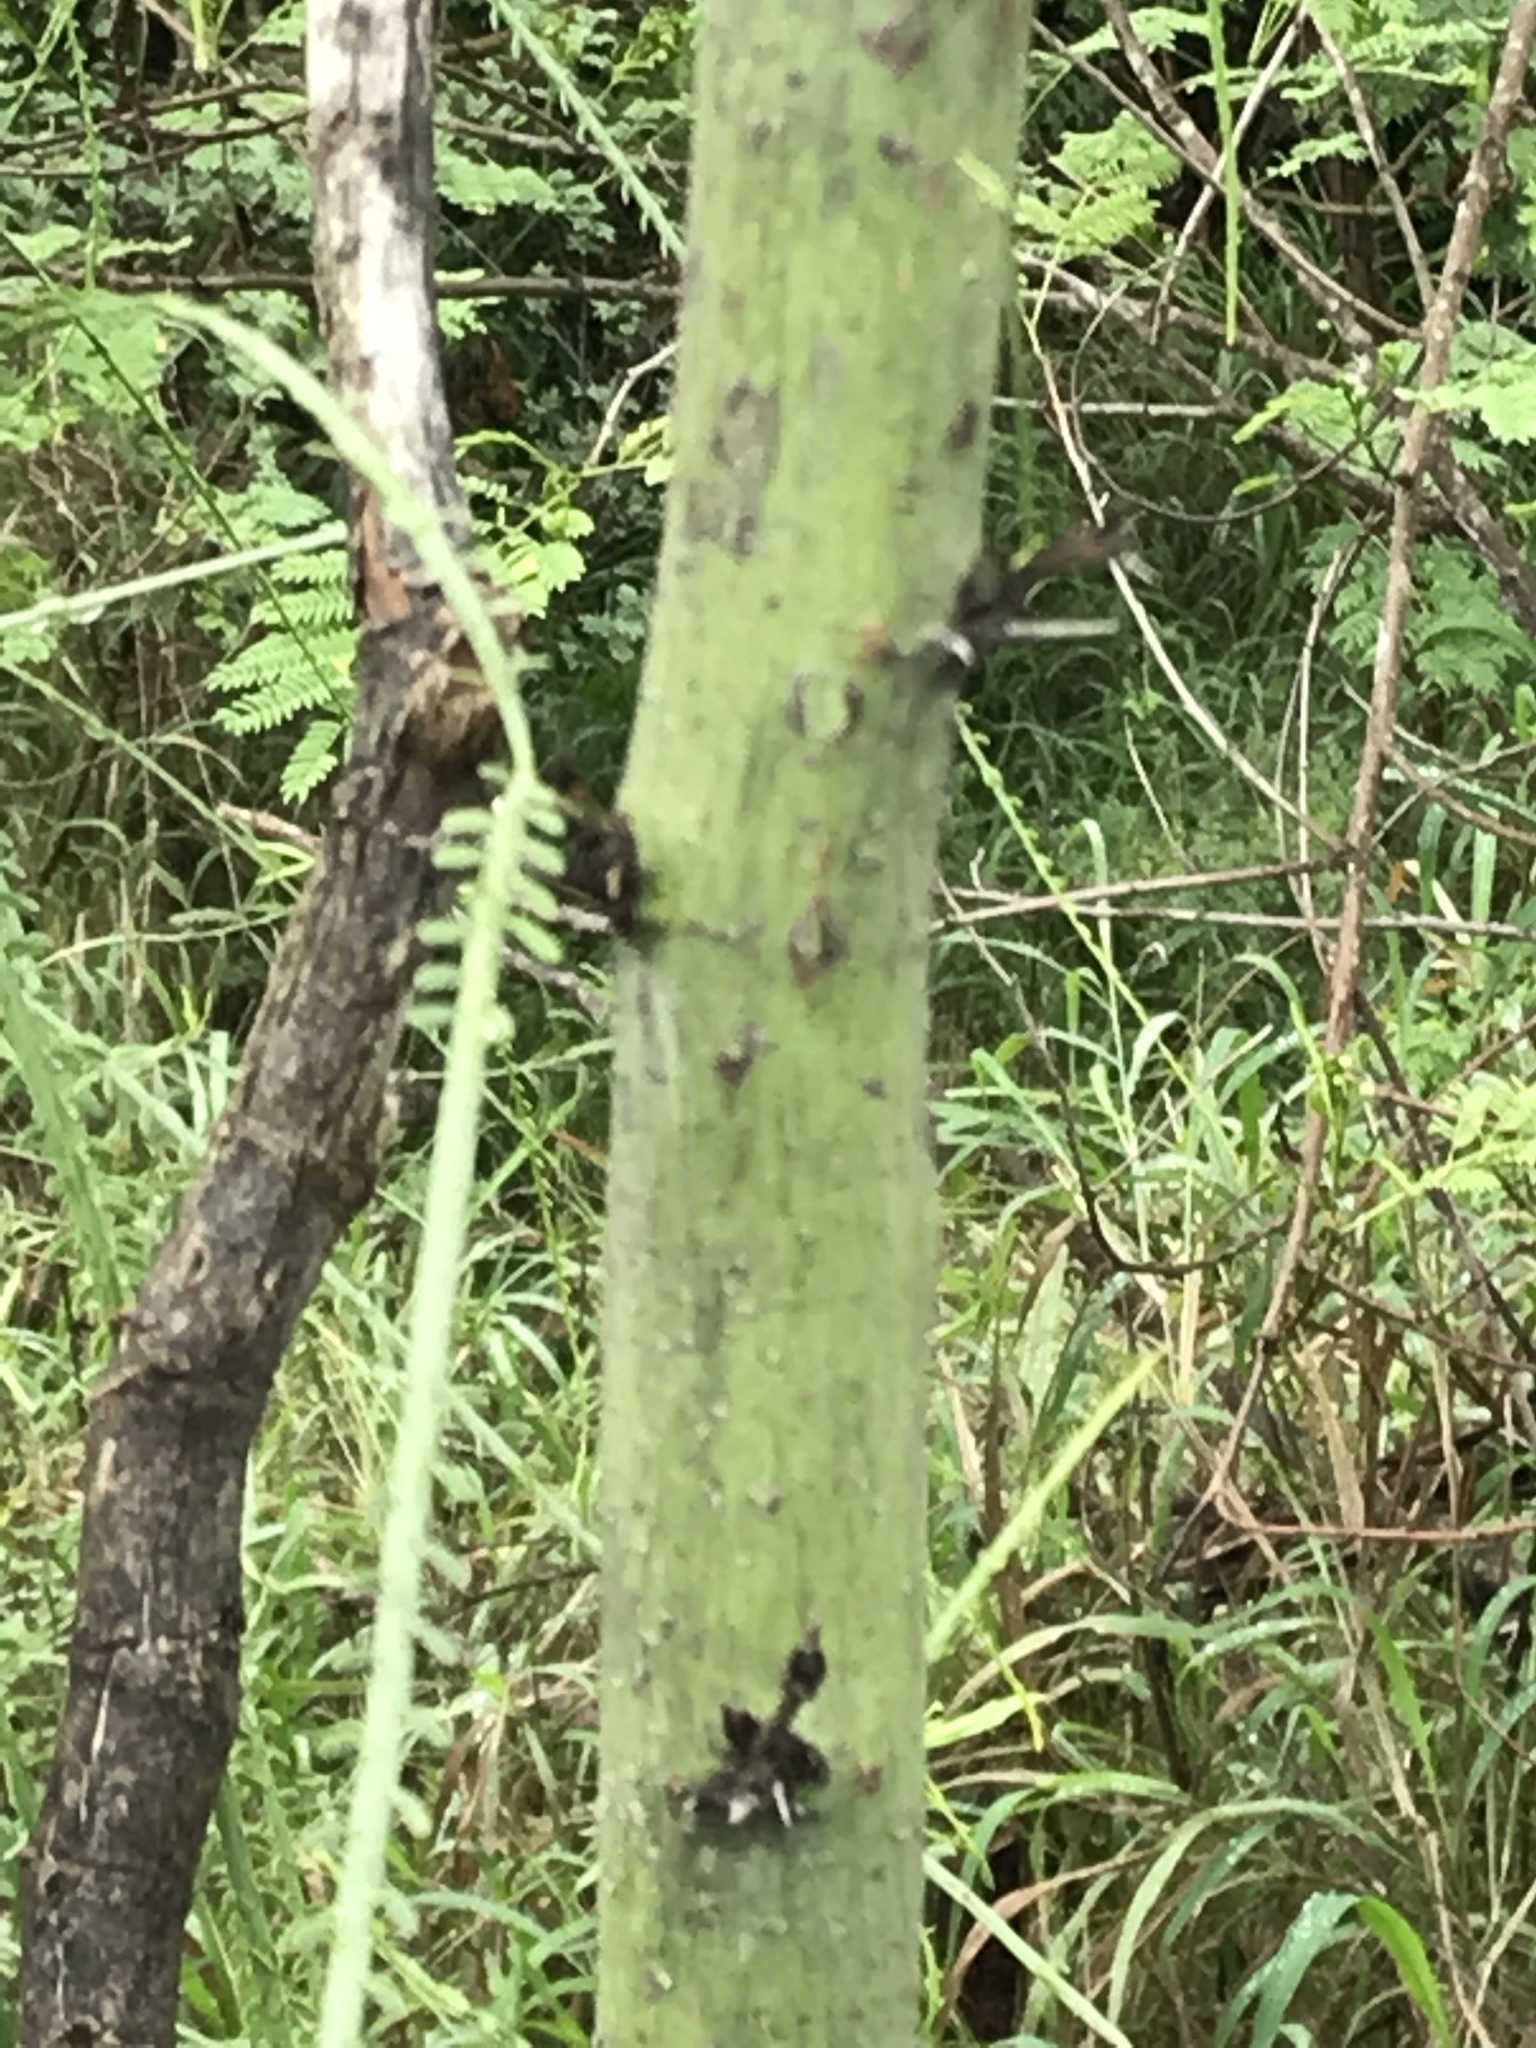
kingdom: Plantae
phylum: Tracheophyta
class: Magnoliopsida
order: Fabales
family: Fabaceae
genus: Parkinsonia
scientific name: Parkinsonia aculeata
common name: Jerusalem thorn
